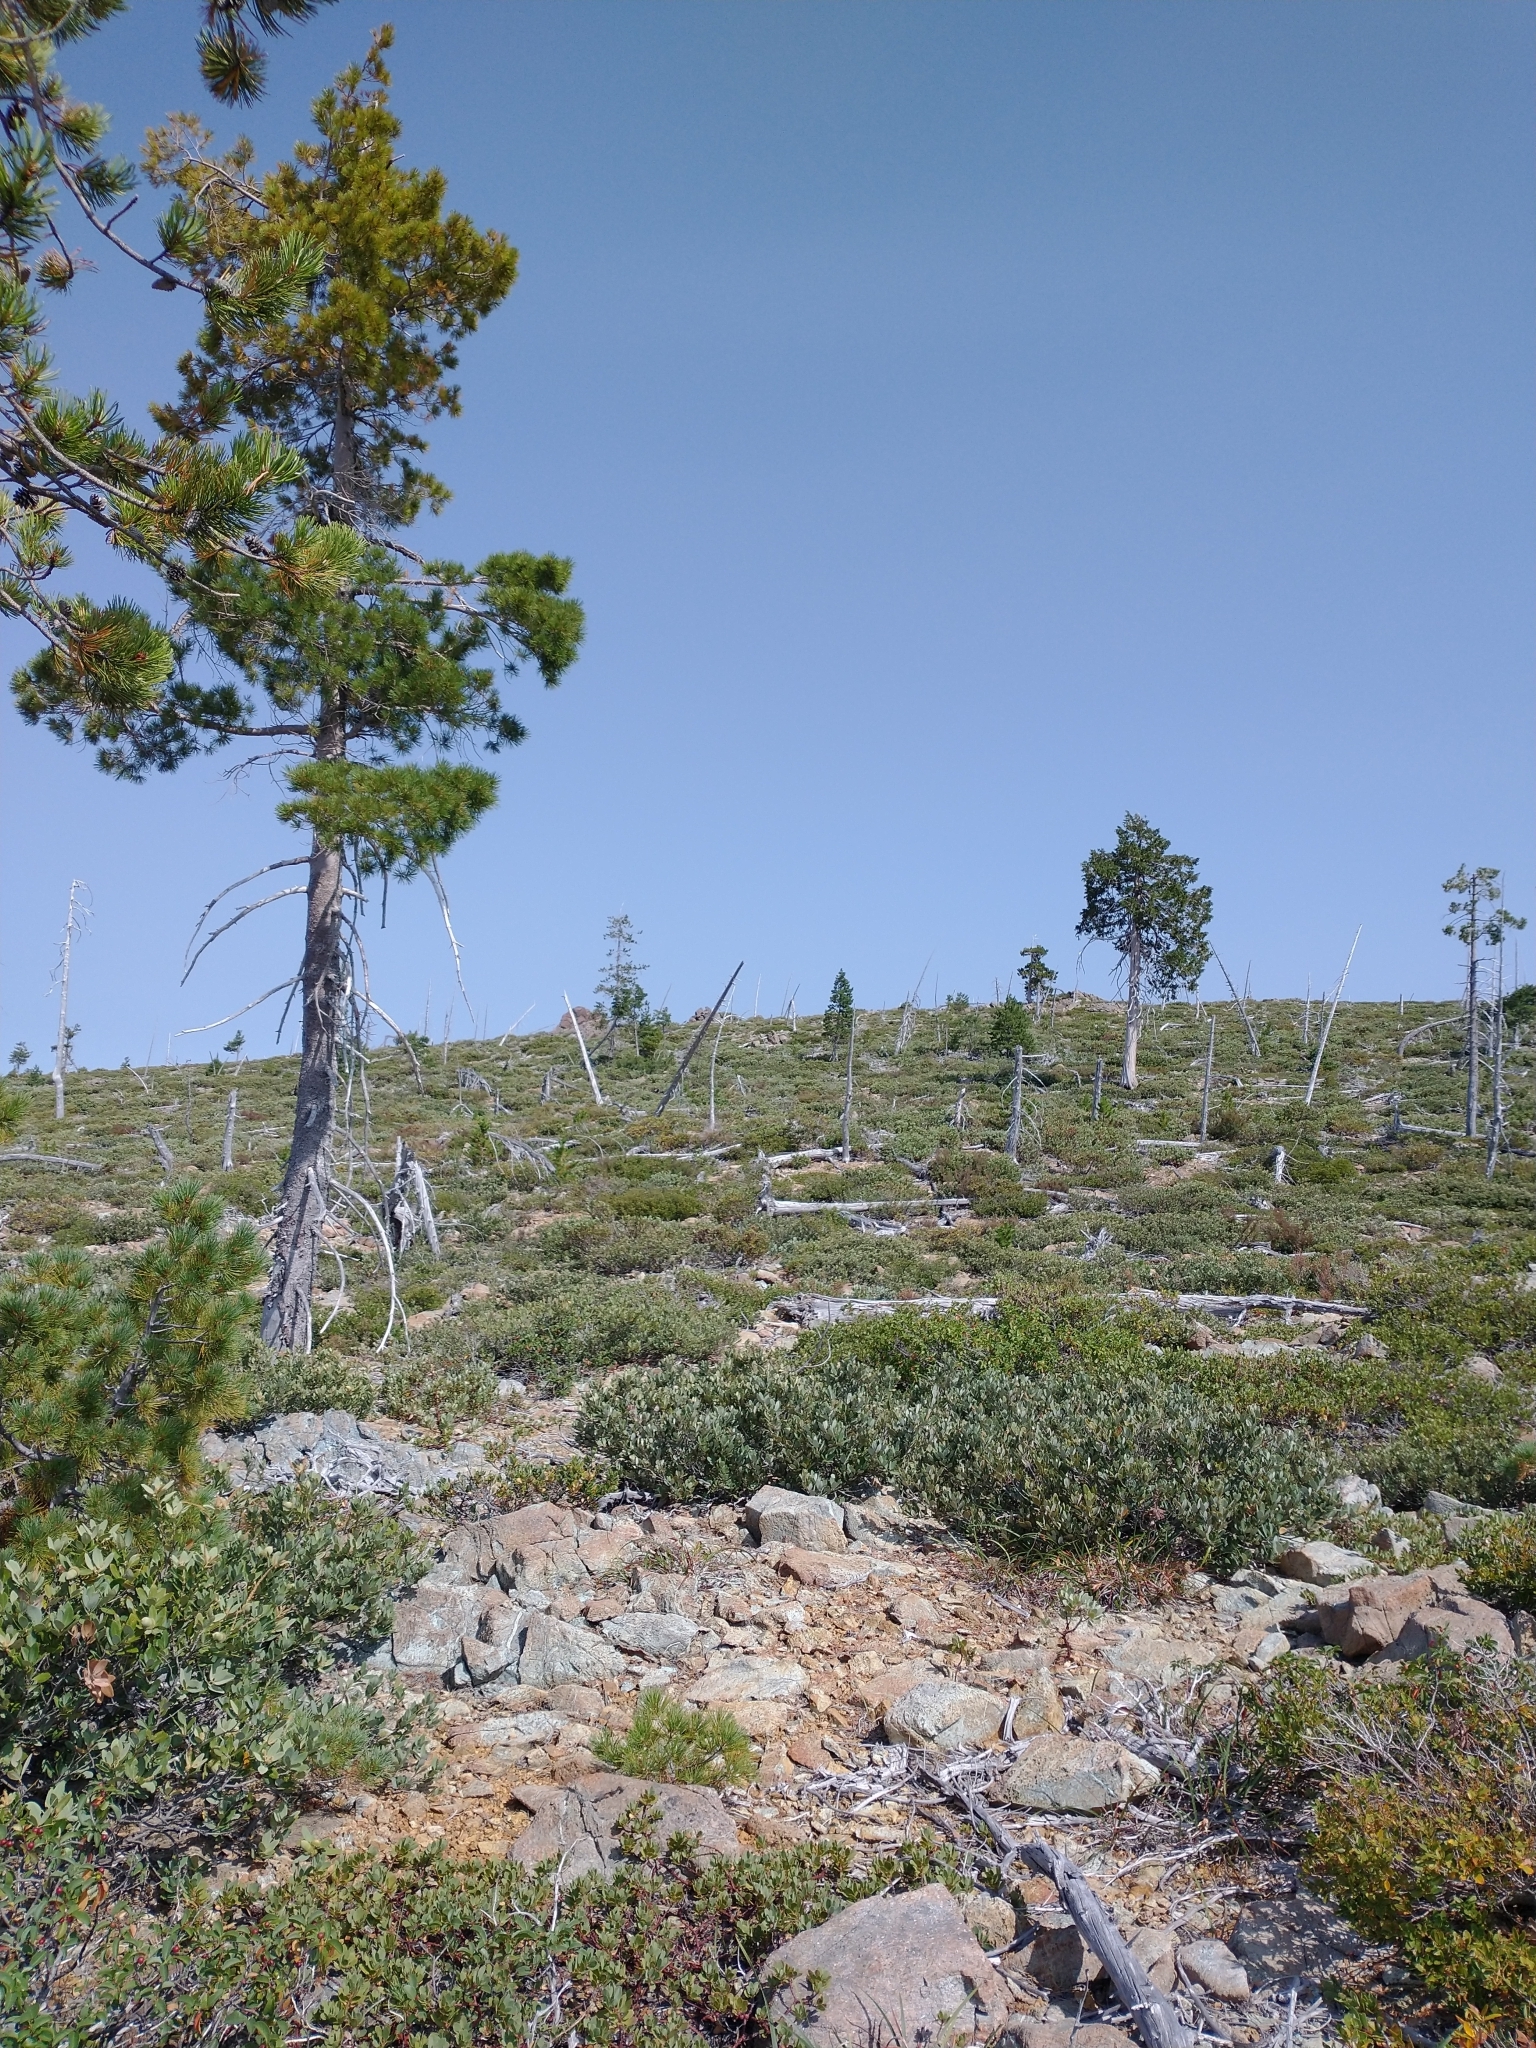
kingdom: Plantae
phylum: Tracheophyta
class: Pinopsida
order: Pinales
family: Pinaceae
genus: Pinus
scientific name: Pinus monticola
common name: Western white pine
